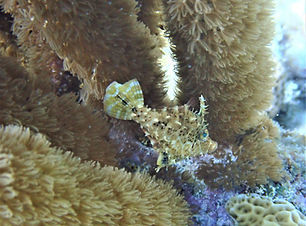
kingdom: Animalia
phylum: Chordata
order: Tetraodontiformes
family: Monacanthidae
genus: Monacanthus
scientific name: Monacanthus tuckeri
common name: Slender filefish
